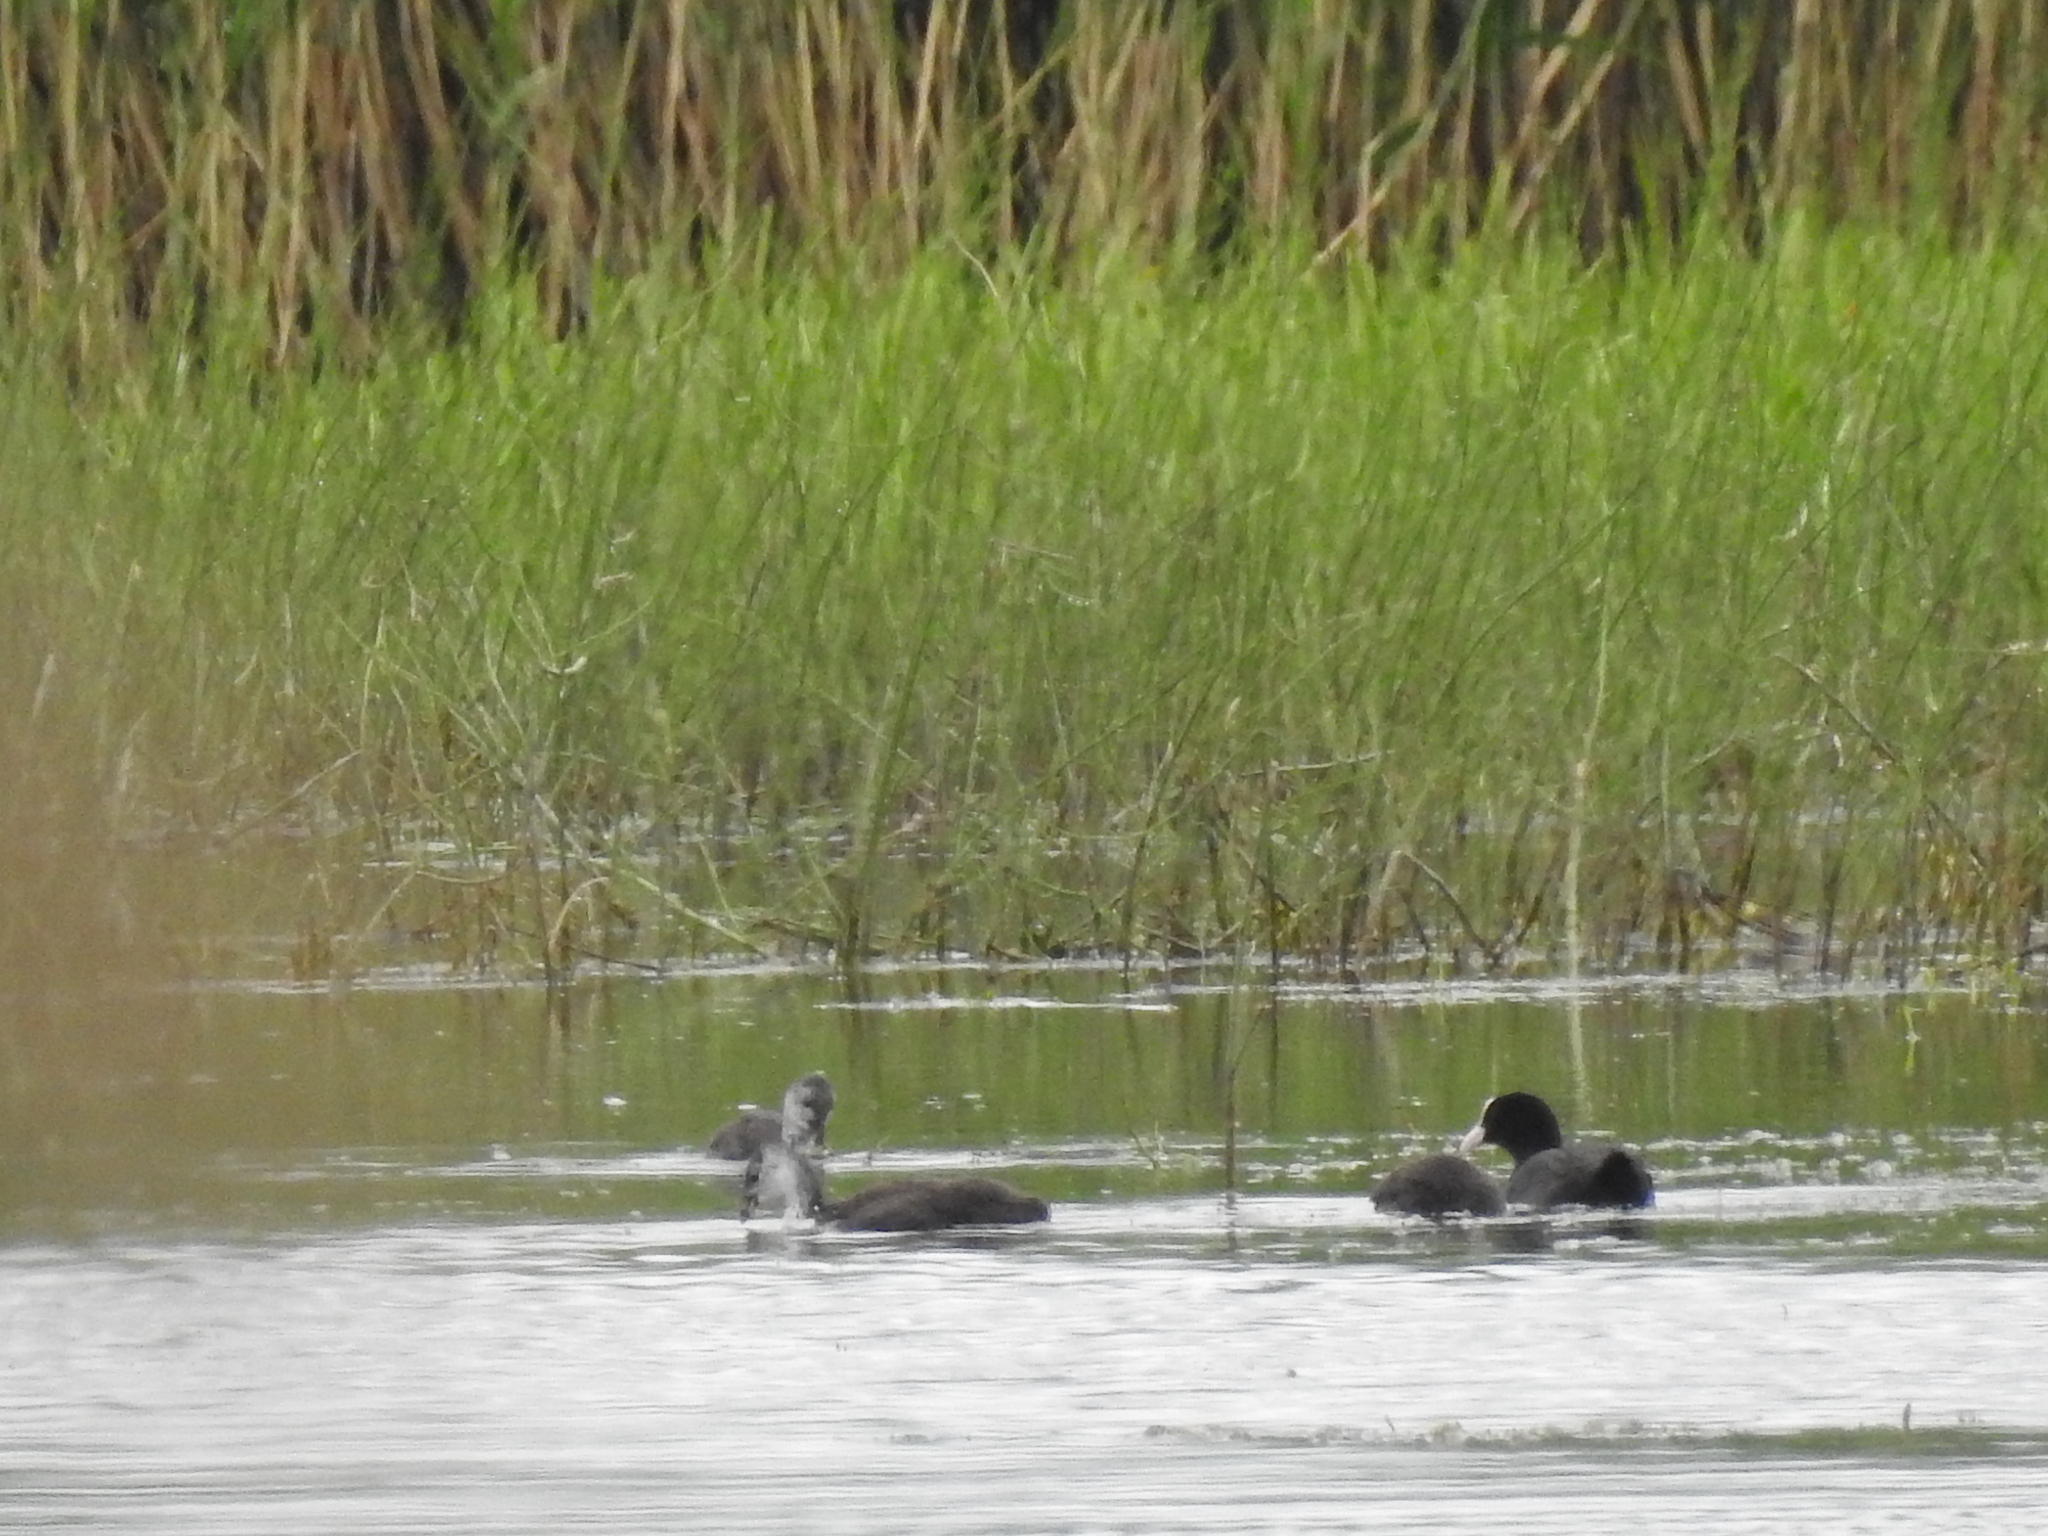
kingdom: Animalia
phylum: Chordata
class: Aves
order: Gruiformes
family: Rallidae
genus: Fulica
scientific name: Fulica atra
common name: Eurasian coot
